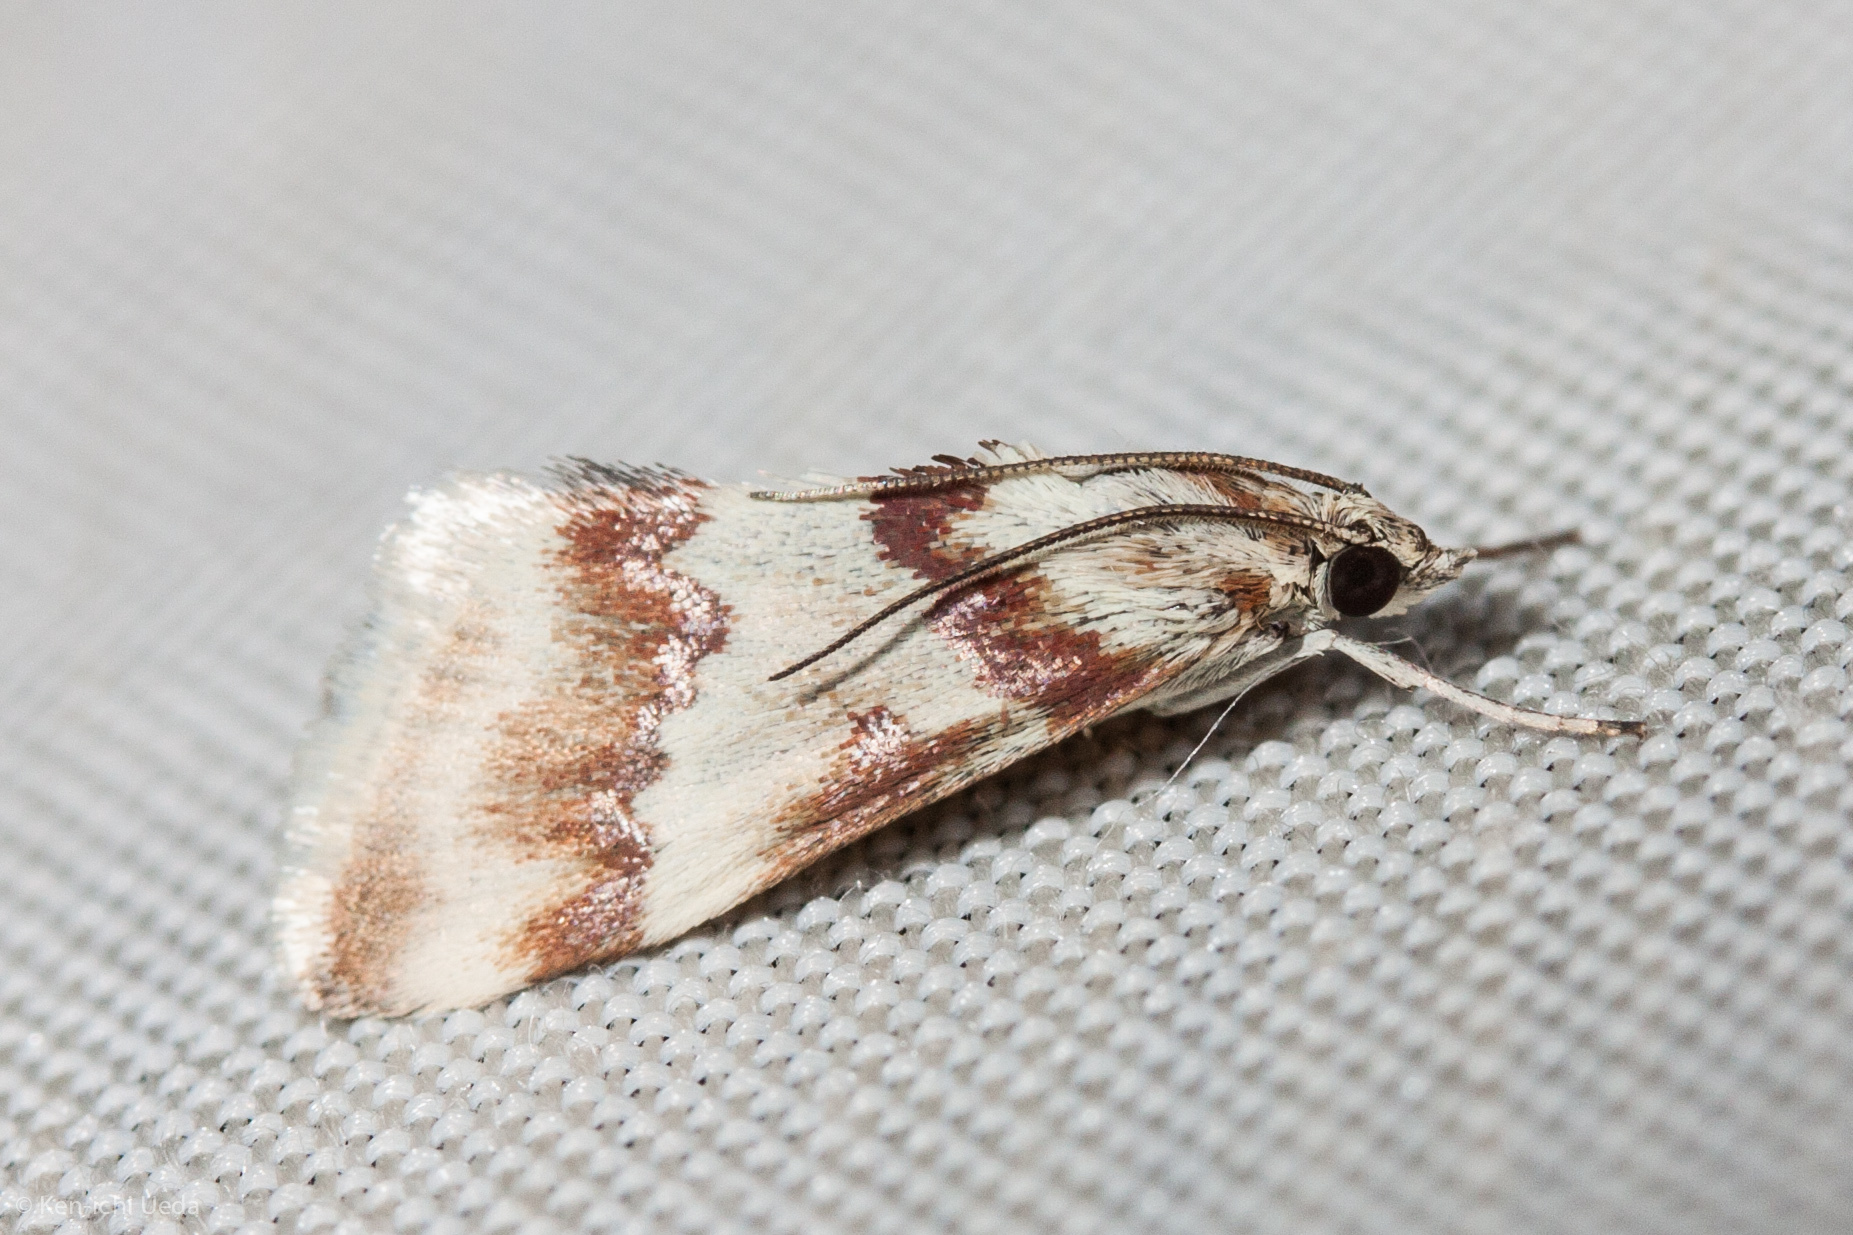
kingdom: Animalia
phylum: Arthropoda
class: Insecta
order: Lepidoptera
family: Crambidae
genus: Noctuelia
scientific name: Noctuelia Mimoschinia rufofascialis
